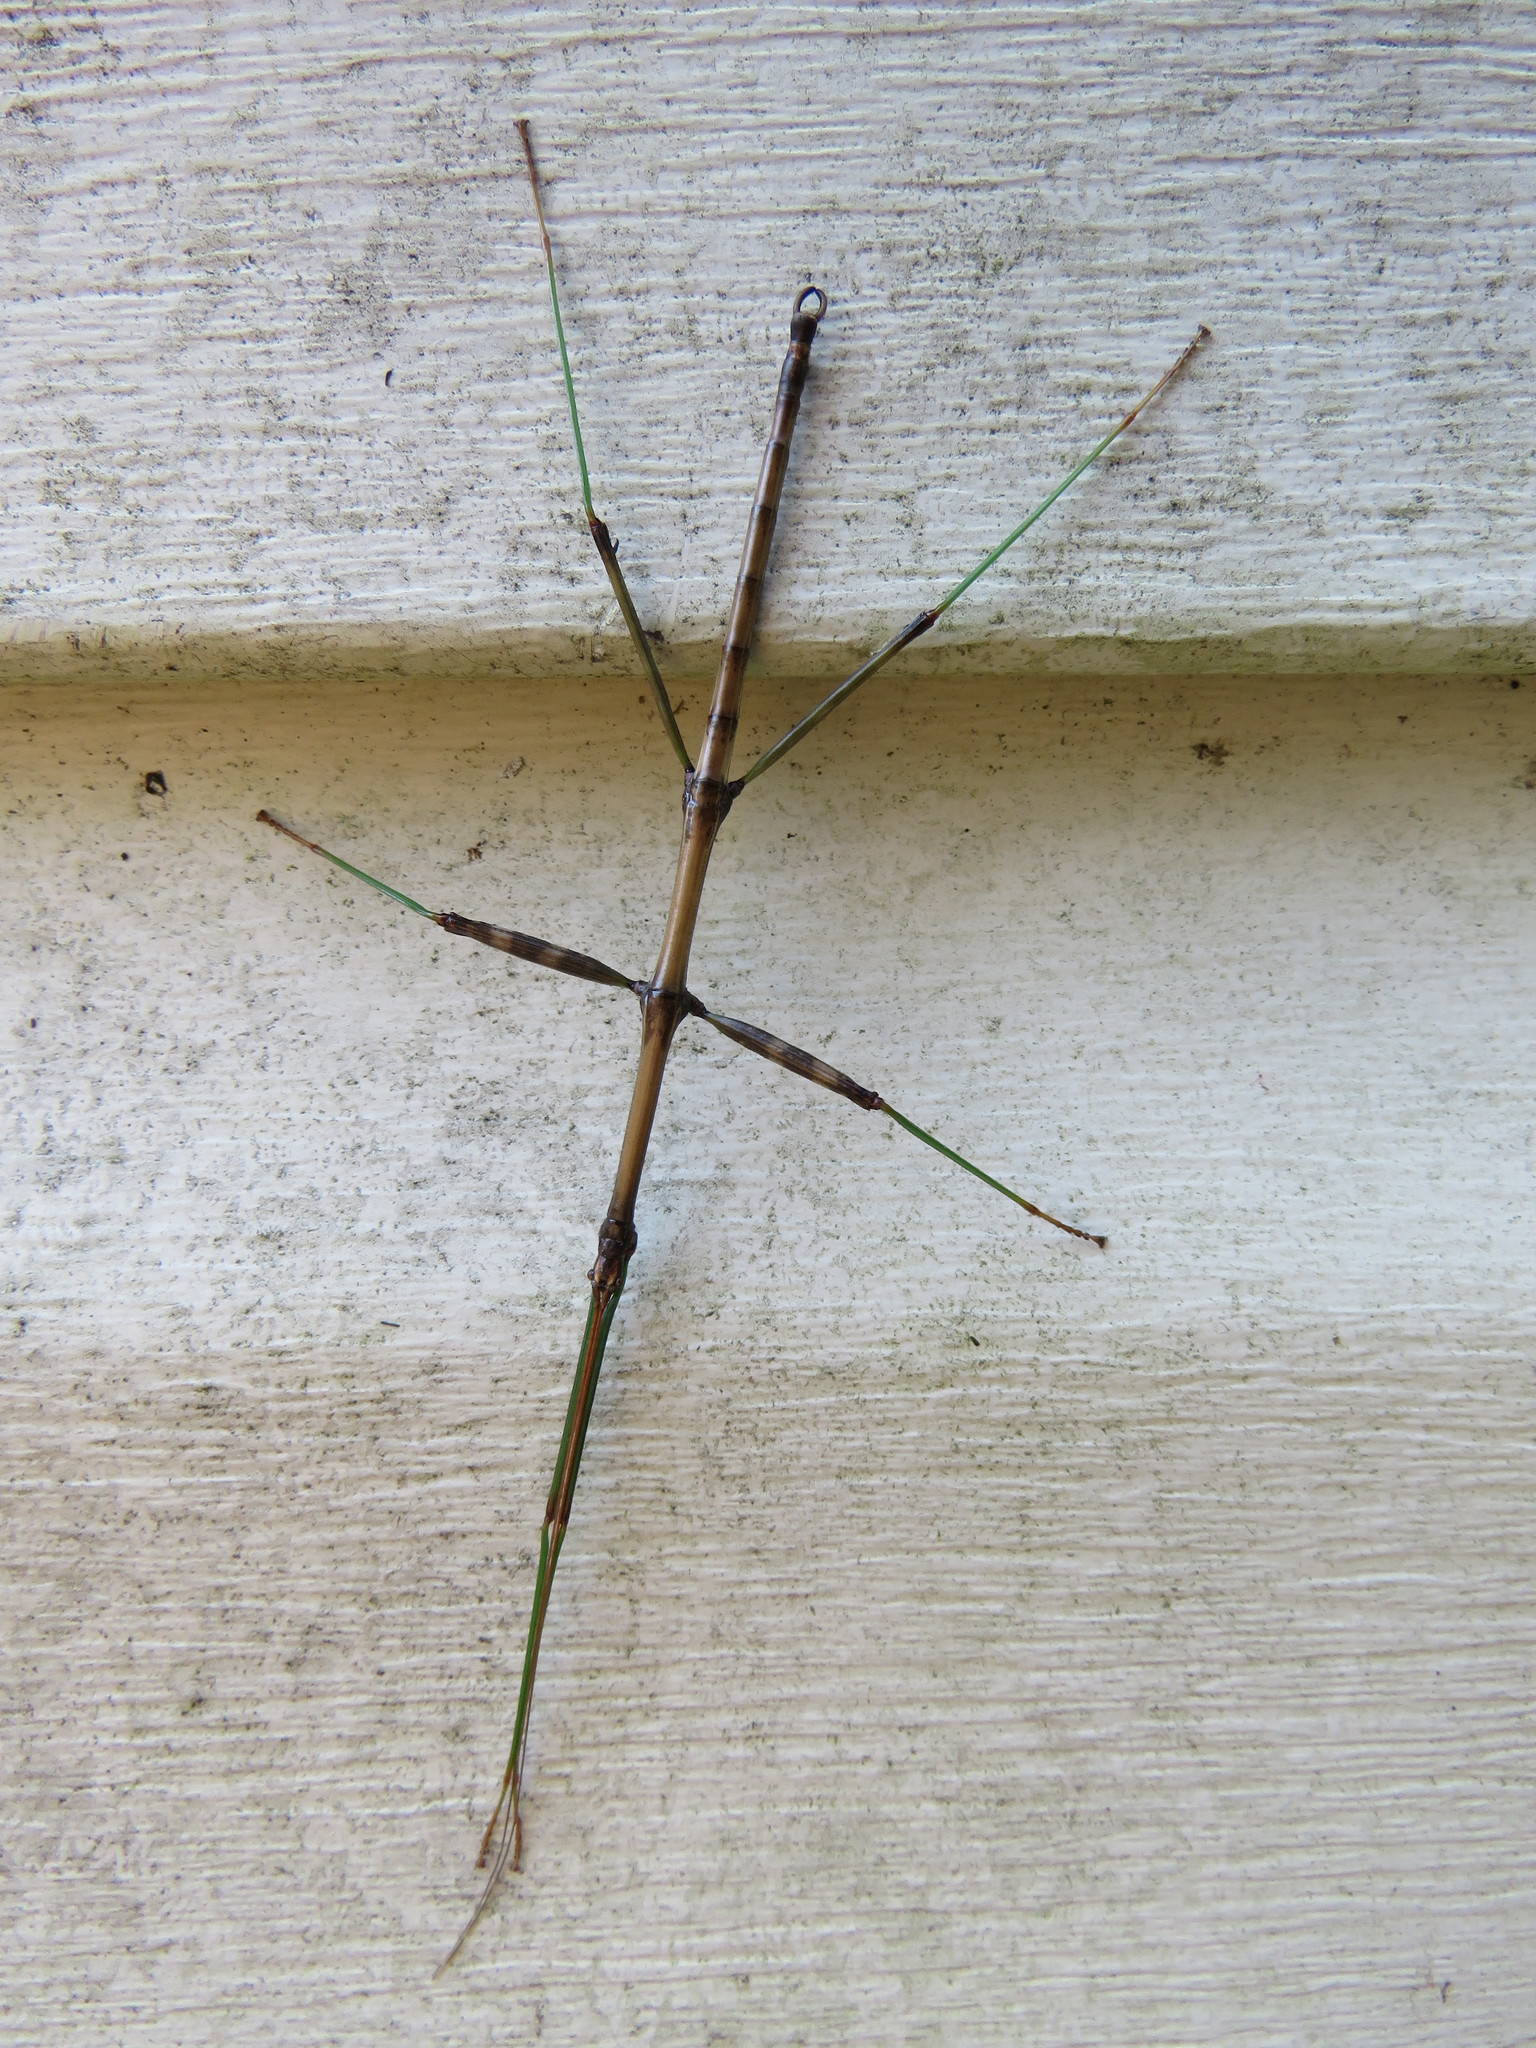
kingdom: Animalia
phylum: Arthropoda
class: Insecta
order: Phasmida
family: Diapheromeridae
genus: Diapheromera
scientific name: Diapheromera femorata
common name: Common american walkingstick
